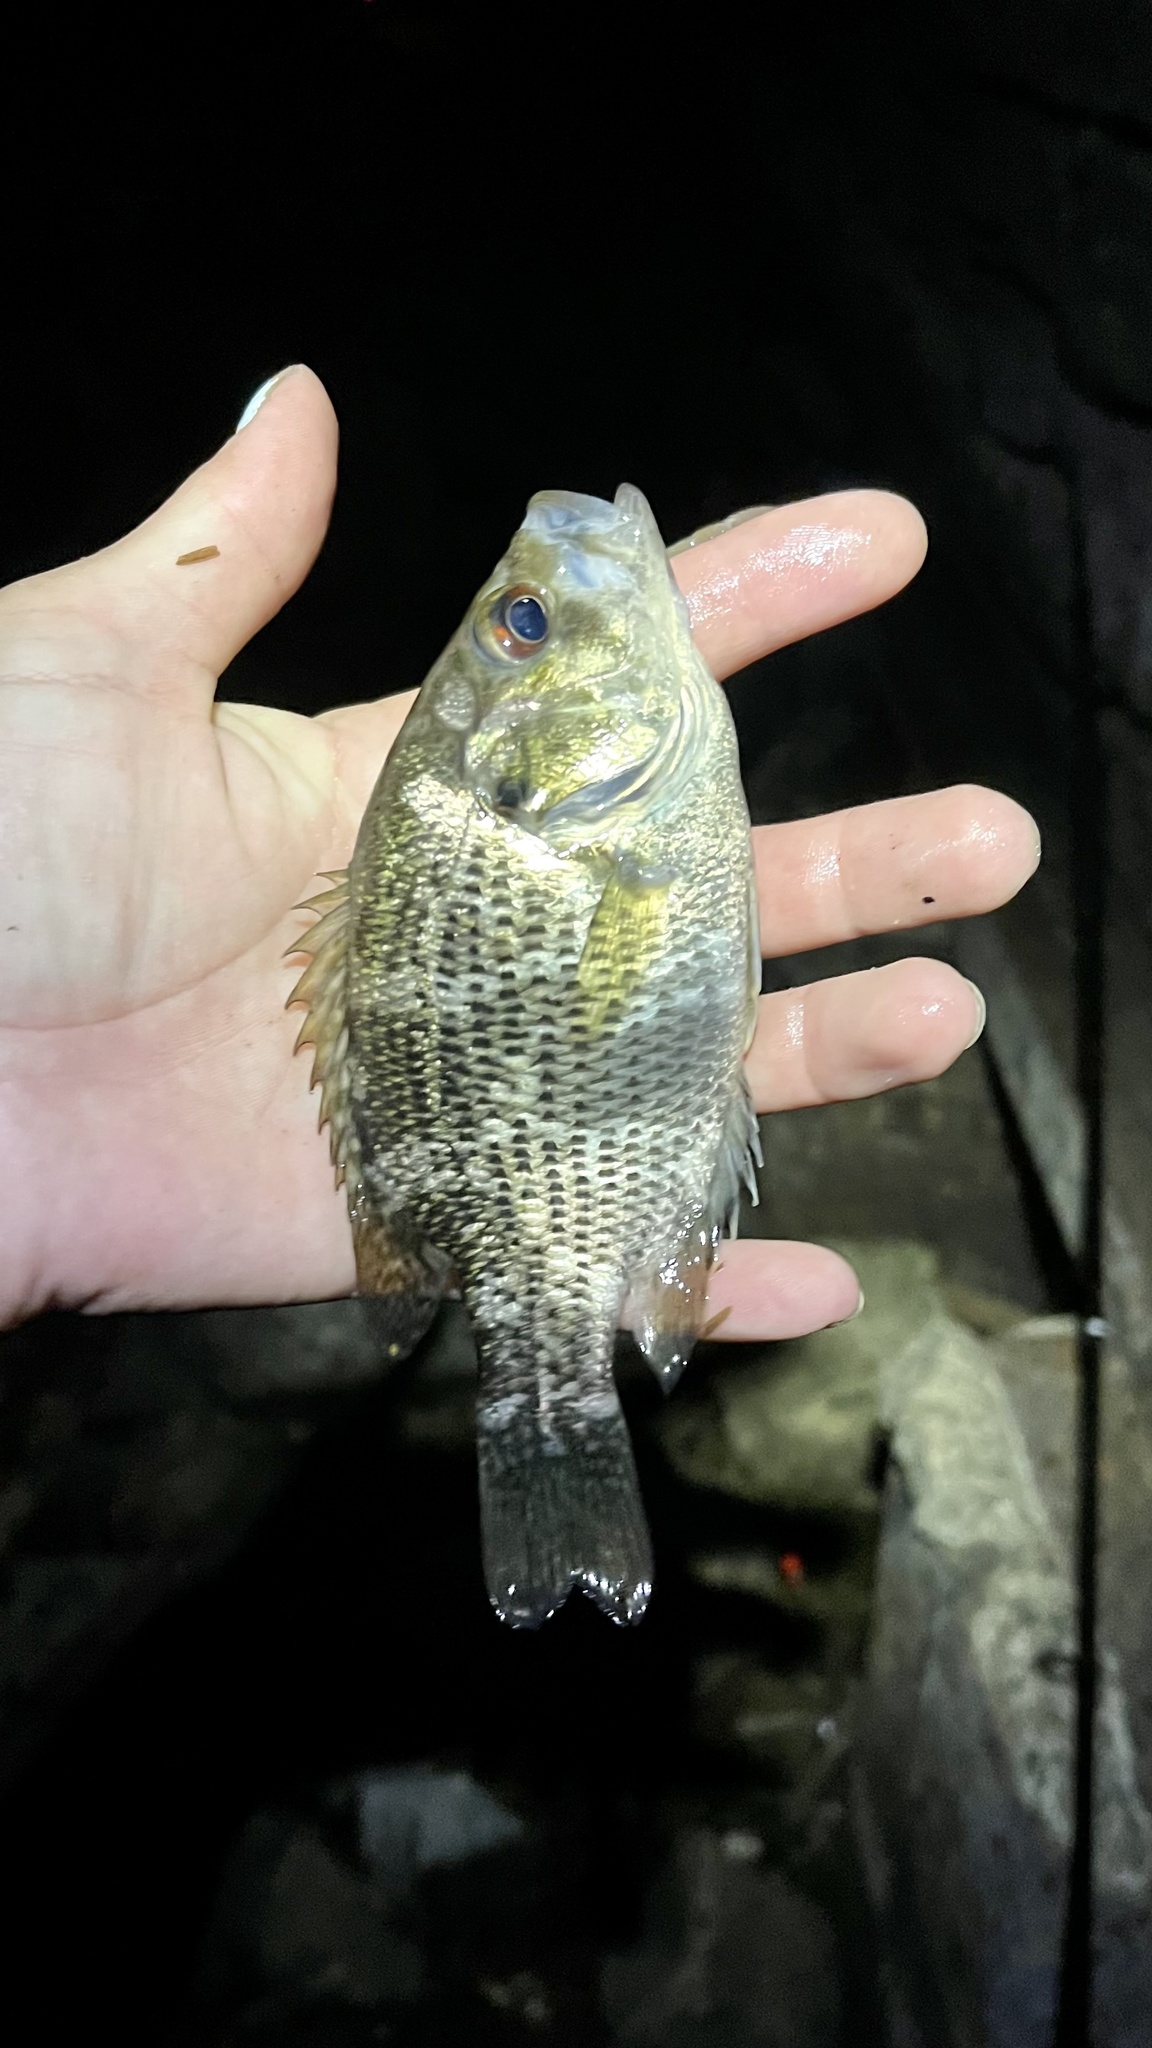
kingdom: Animalia
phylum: Chordata
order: Perciformes
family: Centrarchidae
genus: Ambloplites
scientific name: Ambloplites rupestris
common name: Rock bass
